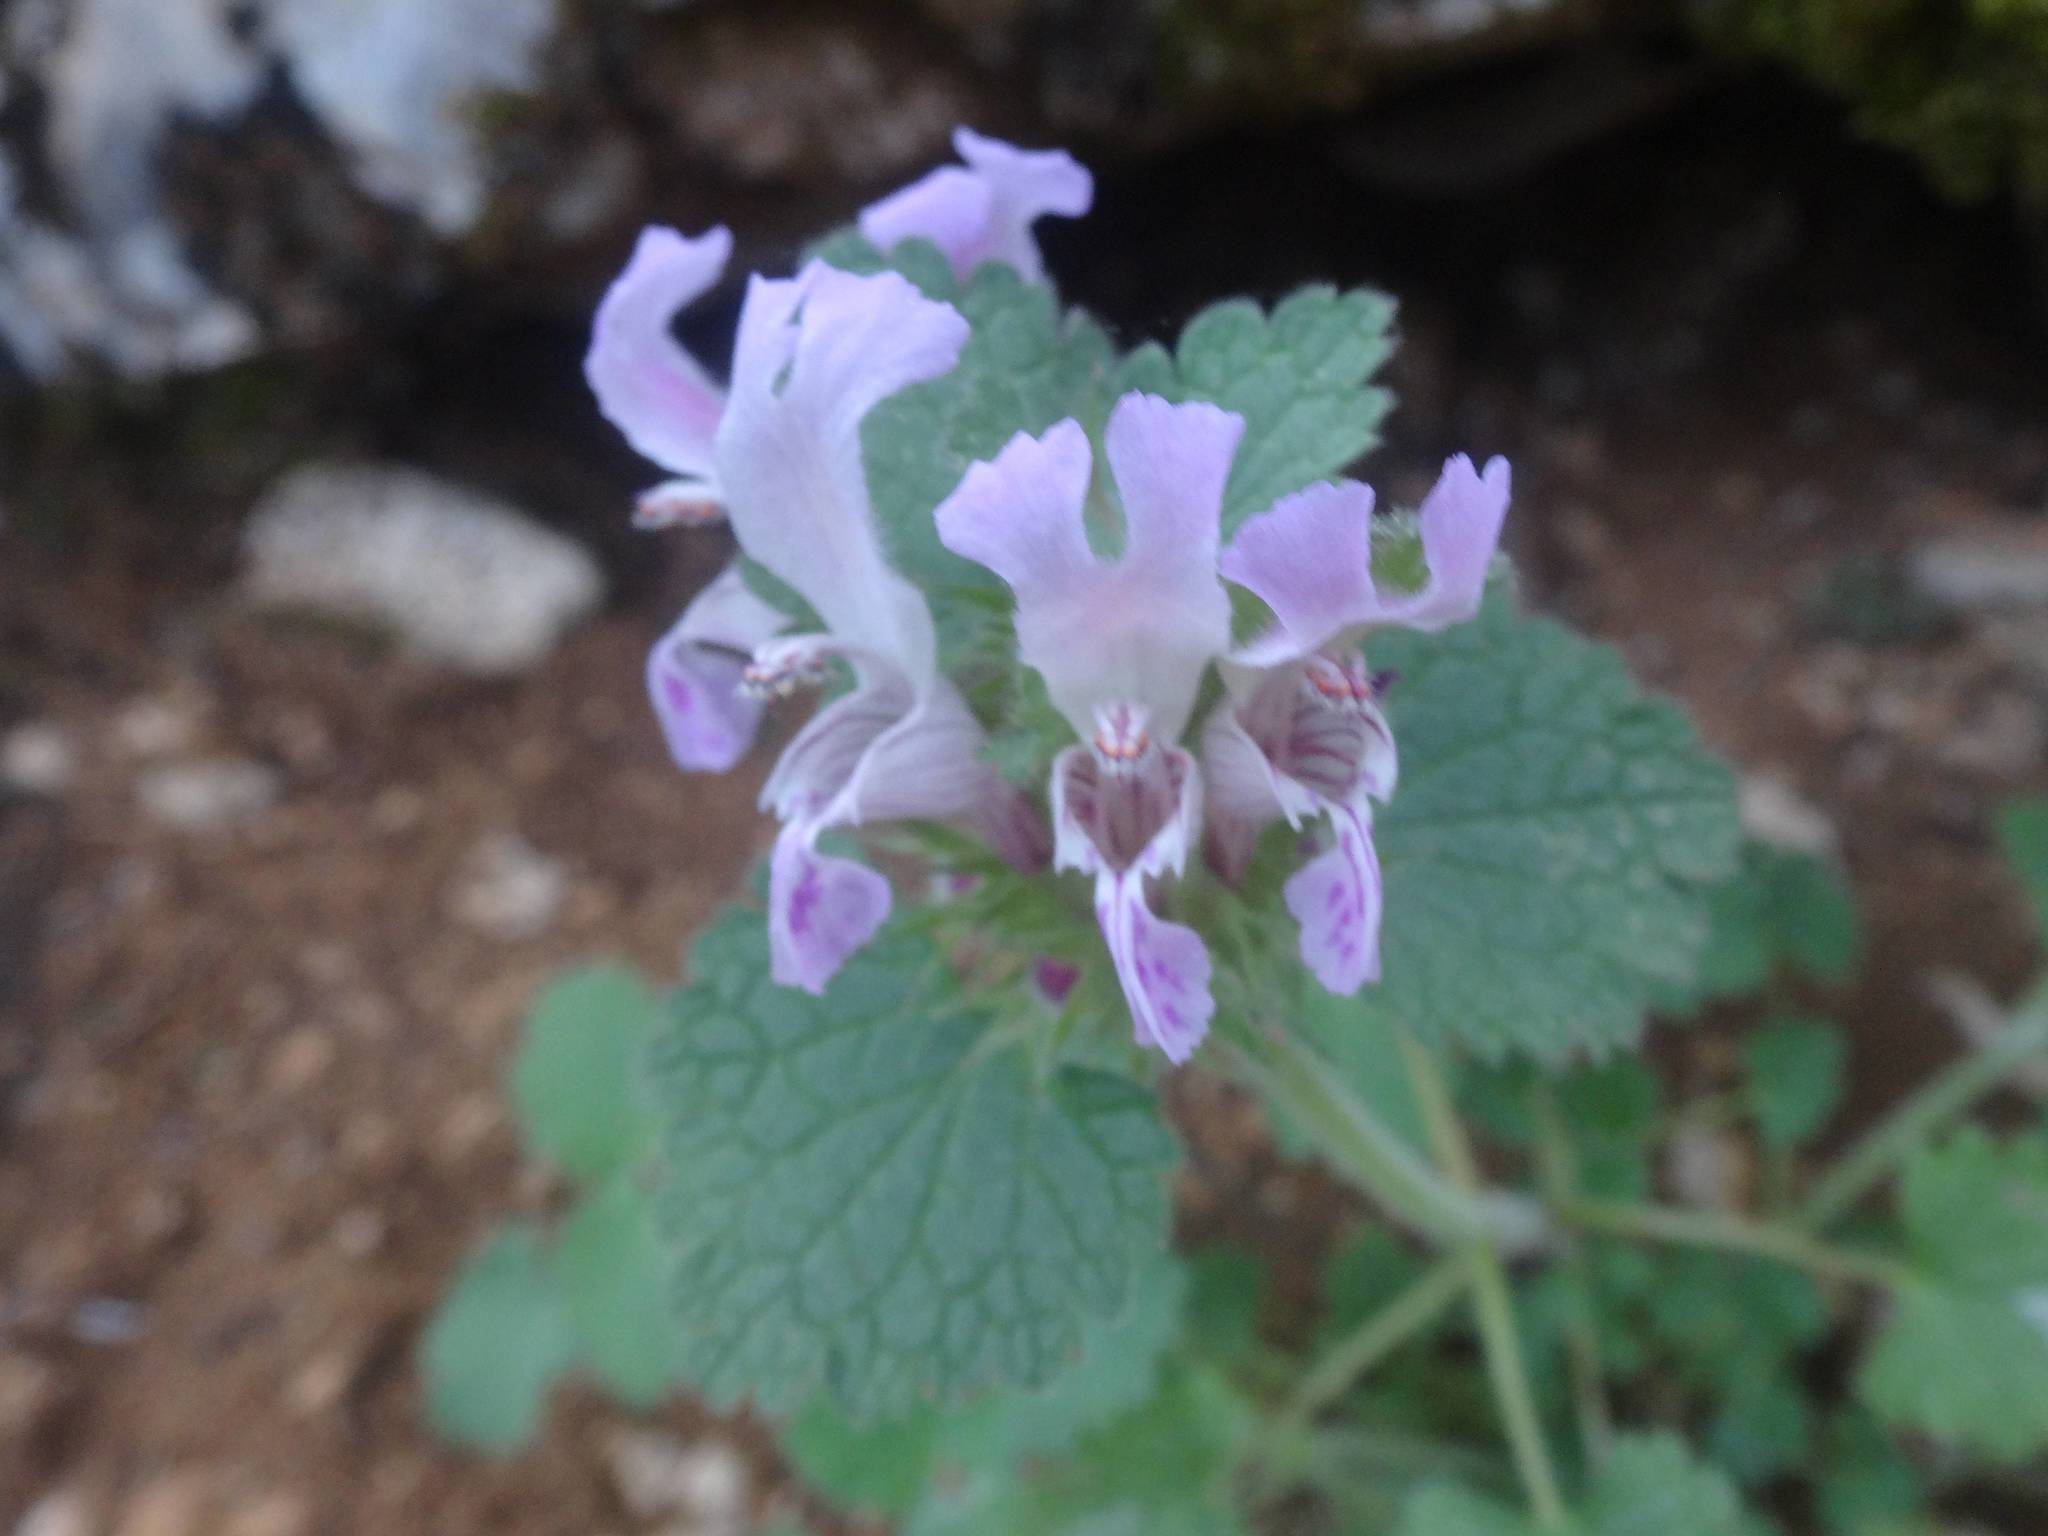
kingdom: Plantae
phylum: Tracheophyta
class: Magnoliopsida
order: Lamiales
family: Lamiaceae
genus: Lamium
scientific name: Lamium garganicum
